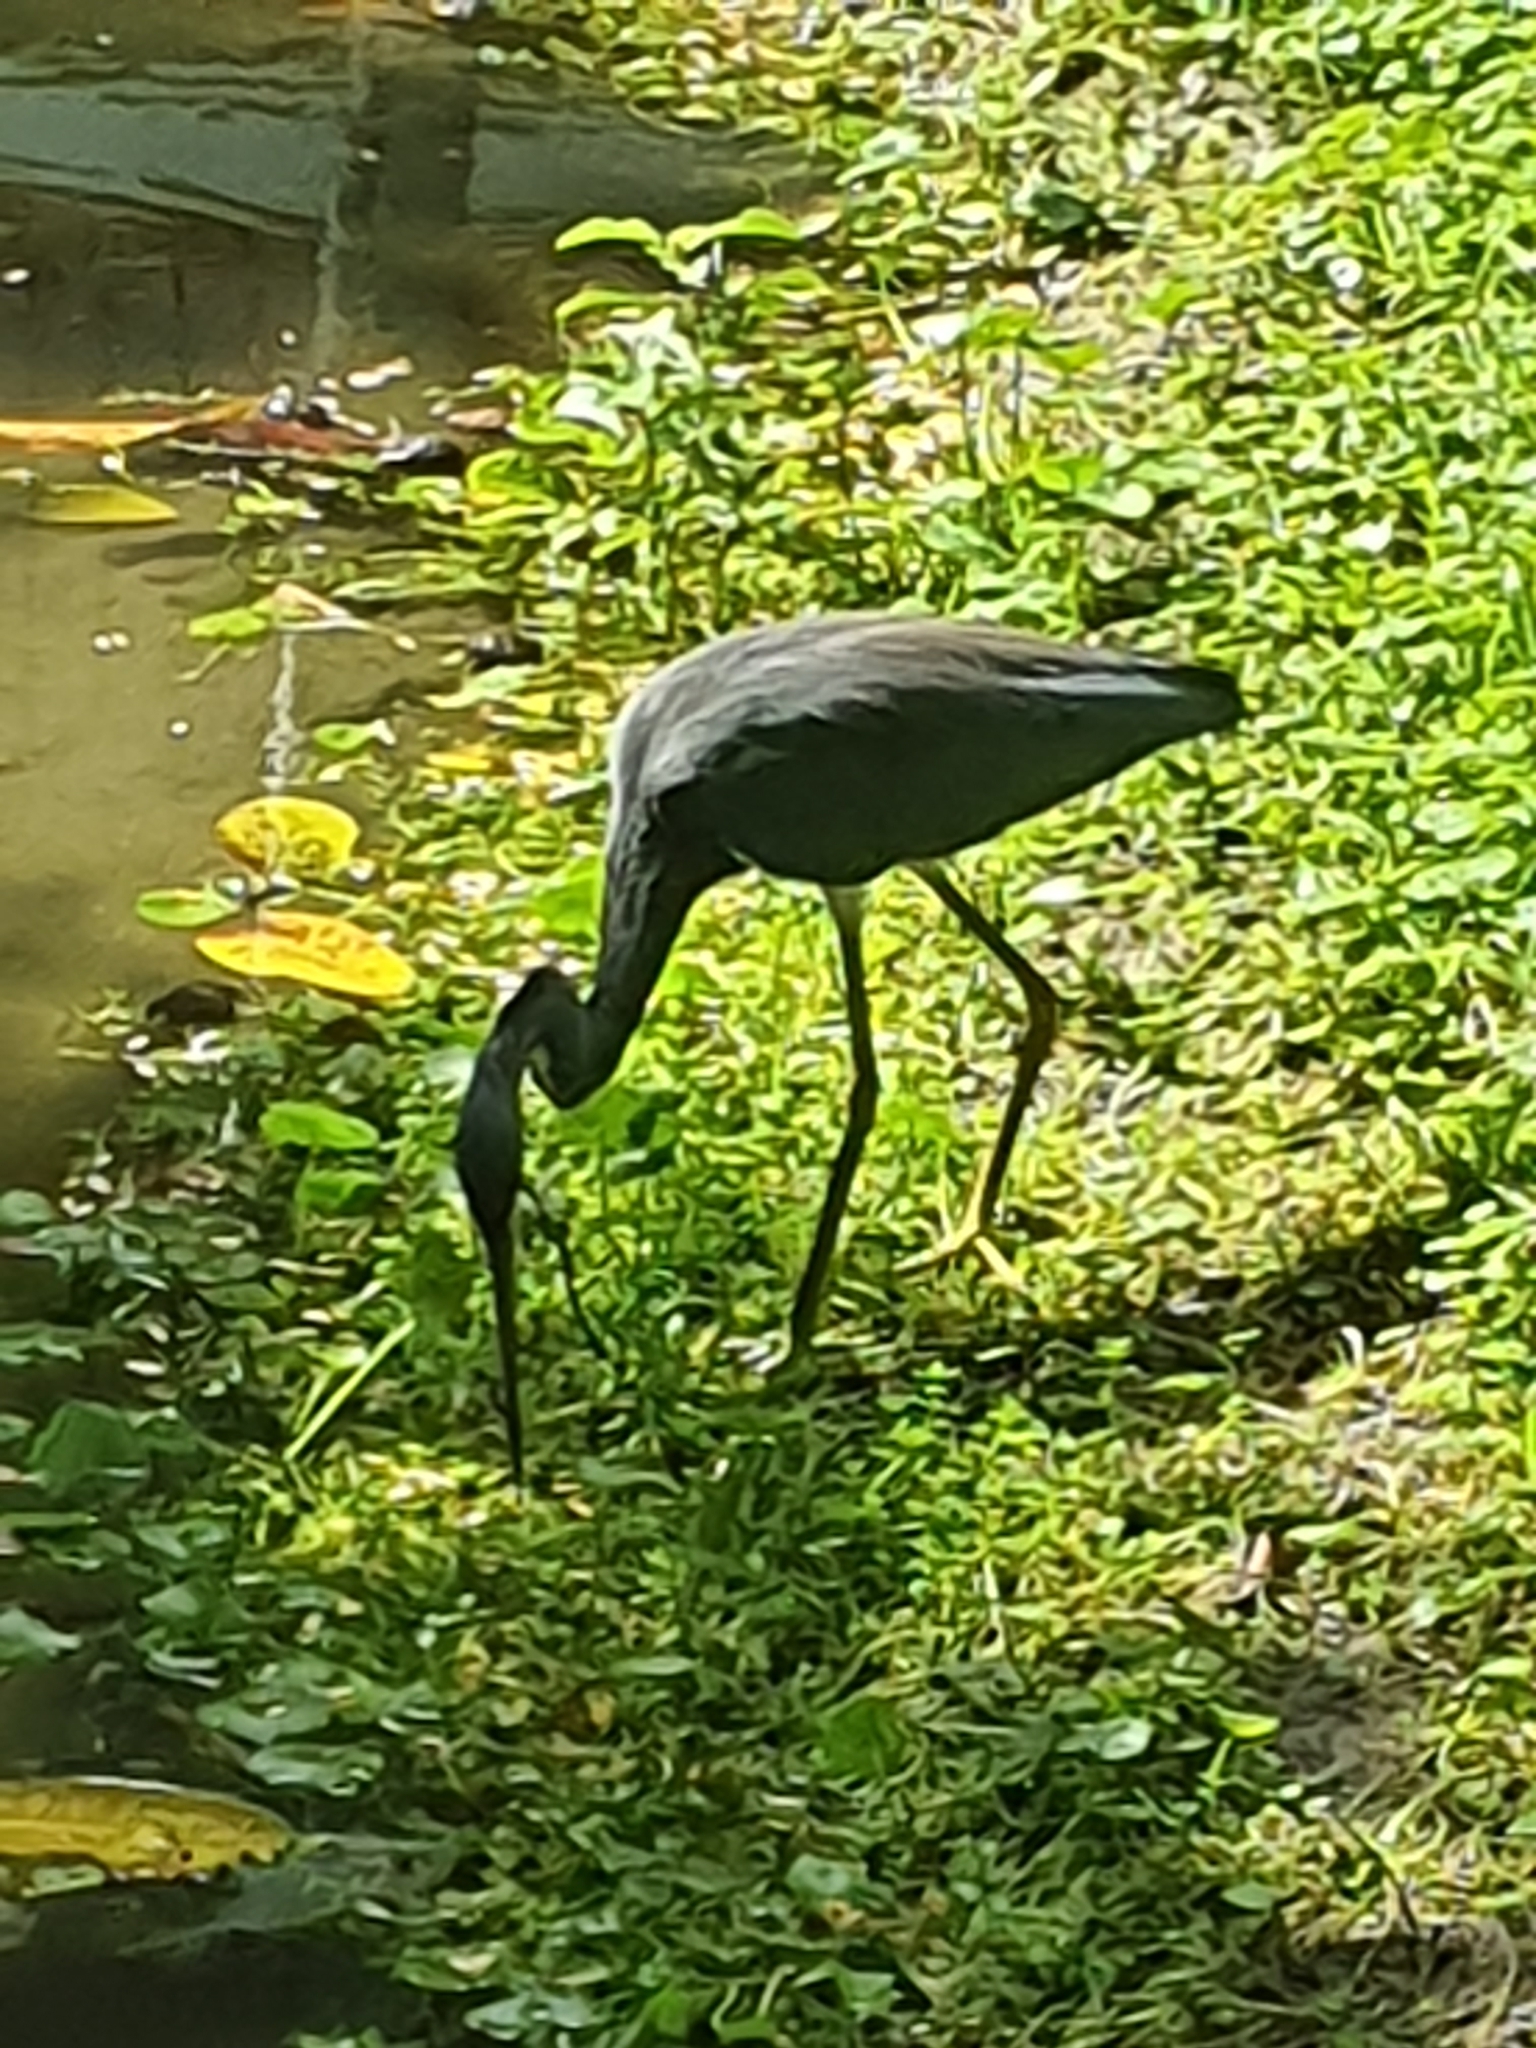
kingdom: Animalia
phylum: Chordata
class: Aves
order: Pelecaniformes
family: Ardeidae
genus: Egretta
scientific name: Egretta tricolor
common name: Tricolored heron
